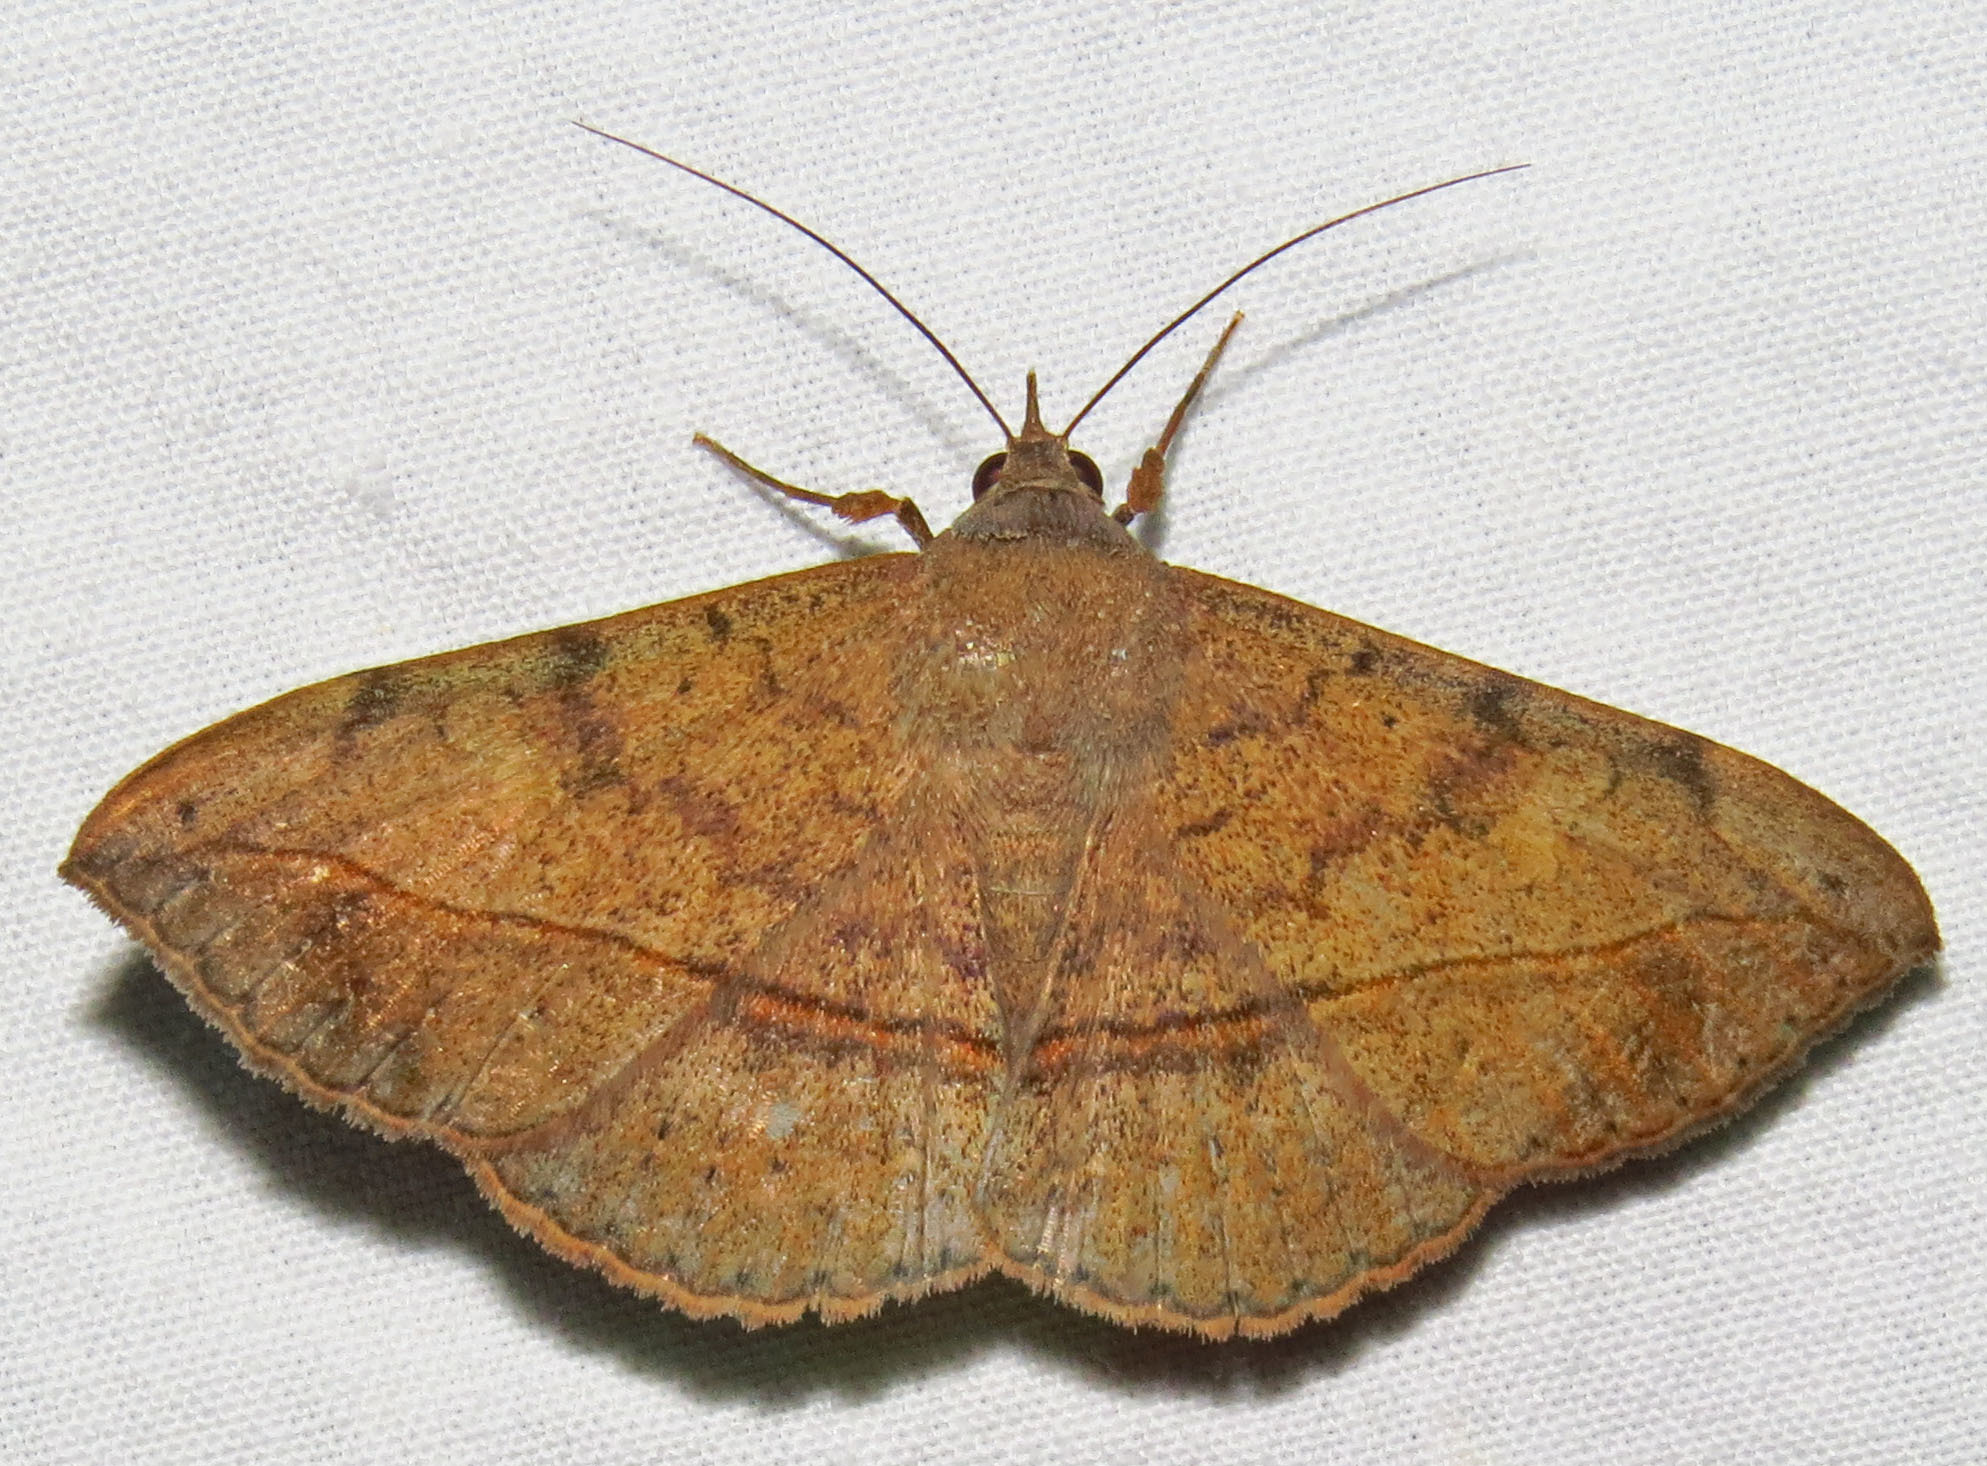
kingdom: Animalia
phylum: Arthropoda
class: Insecta
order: Lepidoptera
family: Erebidae
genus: Anticarsia
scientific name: Anticarsia gemmatalis
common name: Cutworm moth
